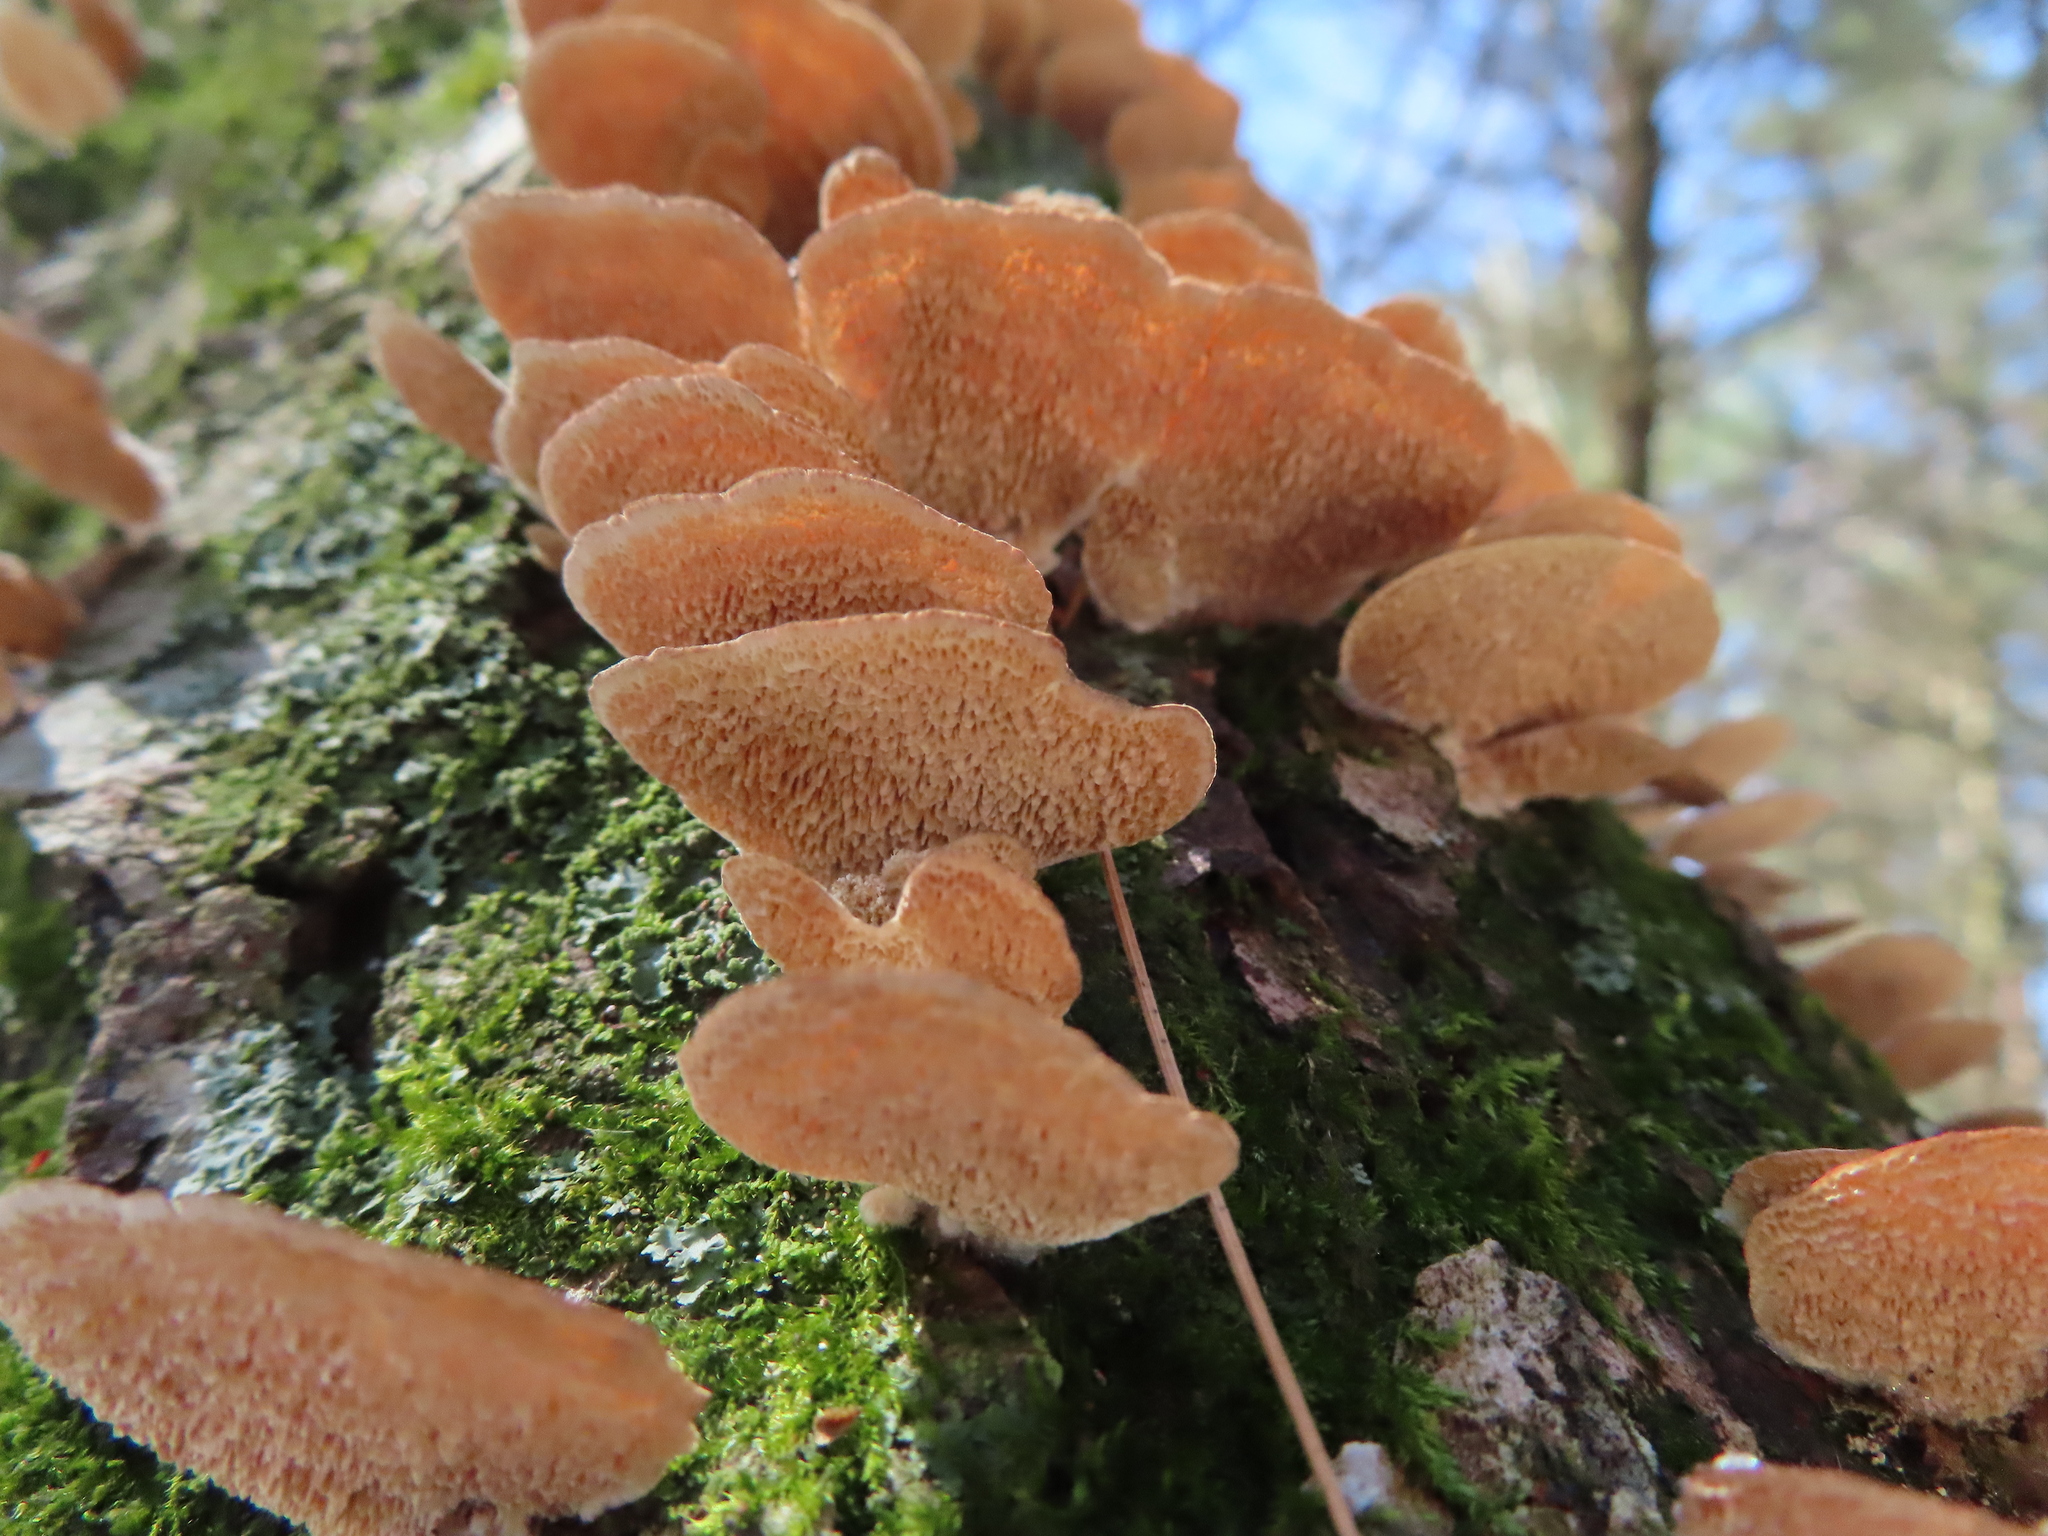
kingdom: Fungi
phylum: Basidiomycota
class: Agaricomycetes
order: Hymenochaetales
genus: Trichaptum
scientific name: Trichaptum biforme
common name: Violet-toothed polypore
